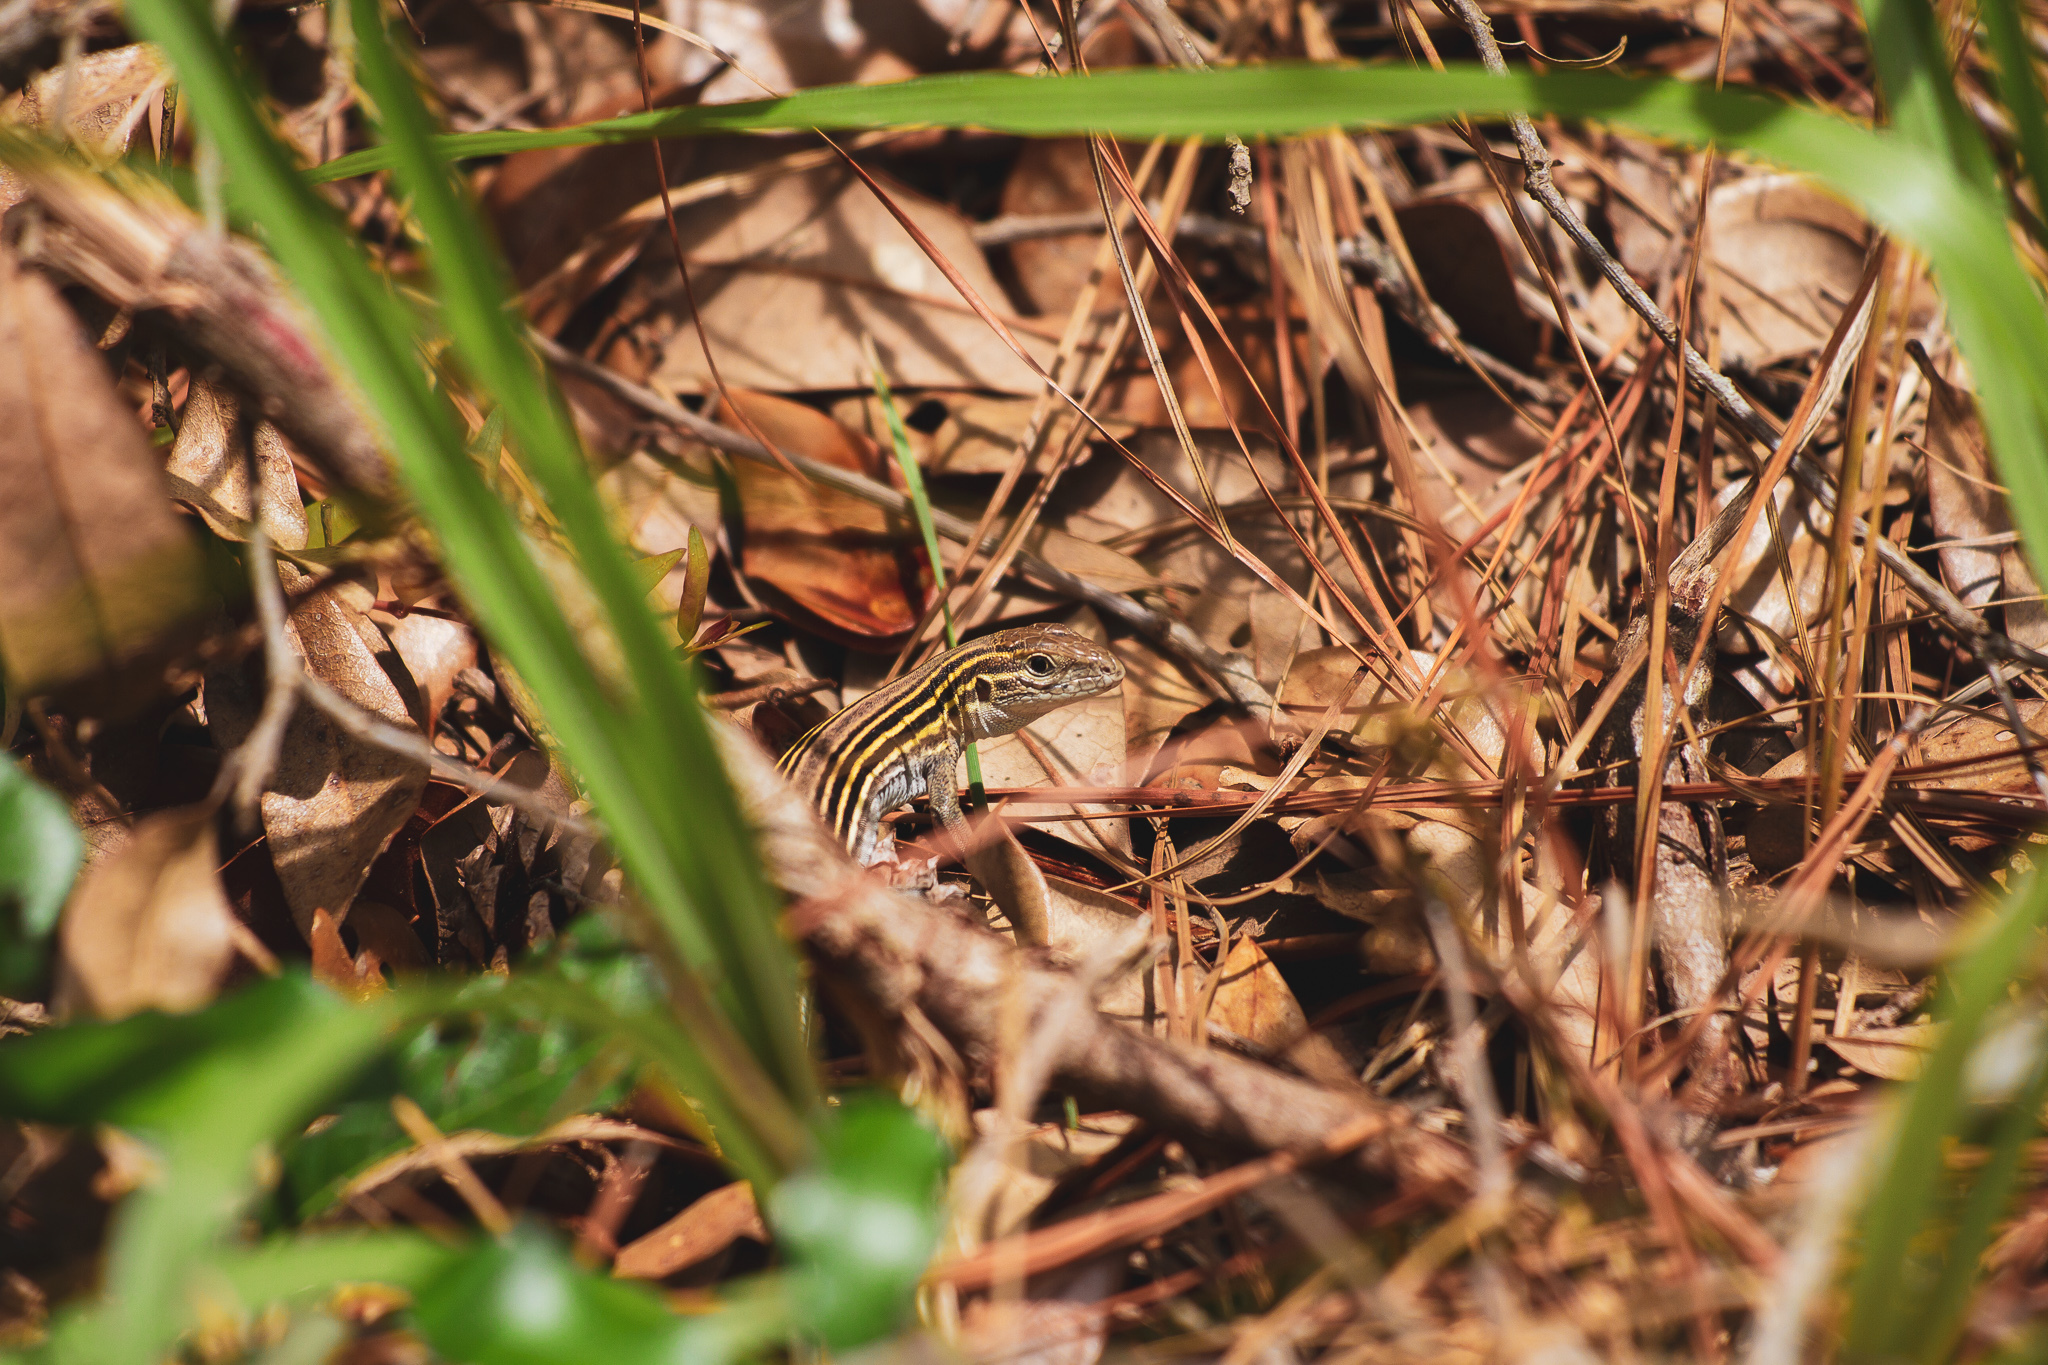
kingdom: Animalia
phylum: Chordata
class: Squamata
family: Teiidae
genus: Aspidoscelis
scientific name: Aspidoscelis sexlineatus
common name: Six-lined racerunner
